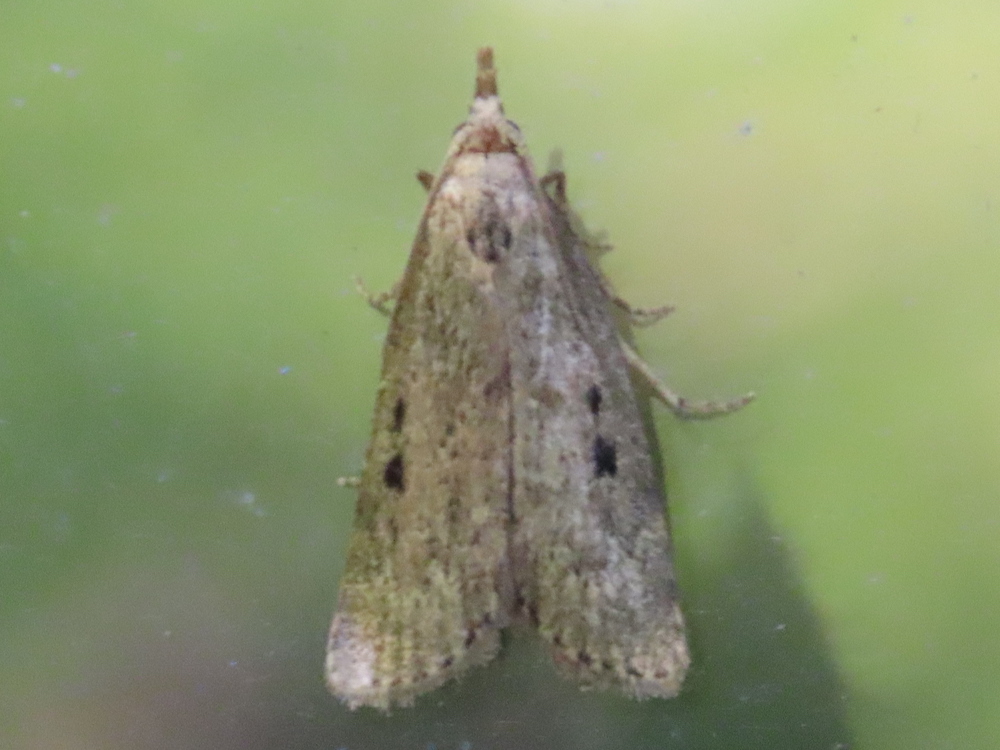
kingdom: Animalia
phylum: Arthropoda
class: Insecta
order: Lepidoptera
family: Pyralidae
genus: Aphomia
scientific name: Aphomia sociella
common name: Bee moth
